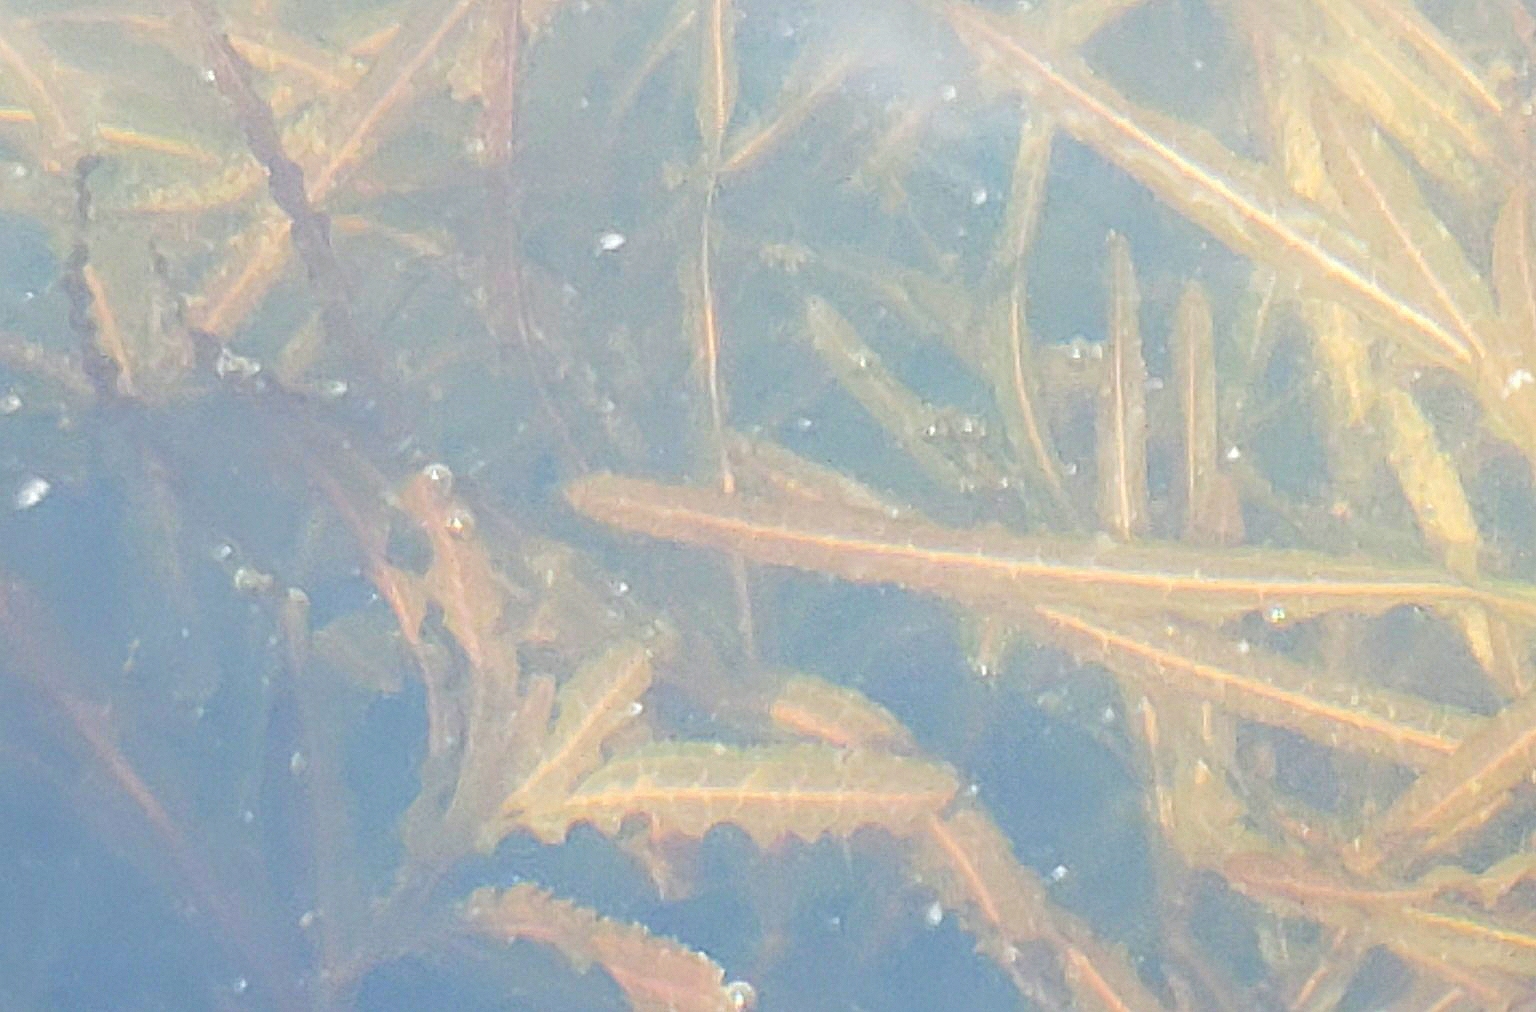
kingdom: Plantae
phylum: Tracheophyta
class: Liliopsida
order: Alismatales
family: Potamogetonaceae
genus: Potamogeton
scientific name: Potamogeton crispus
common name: Curled pondweed
